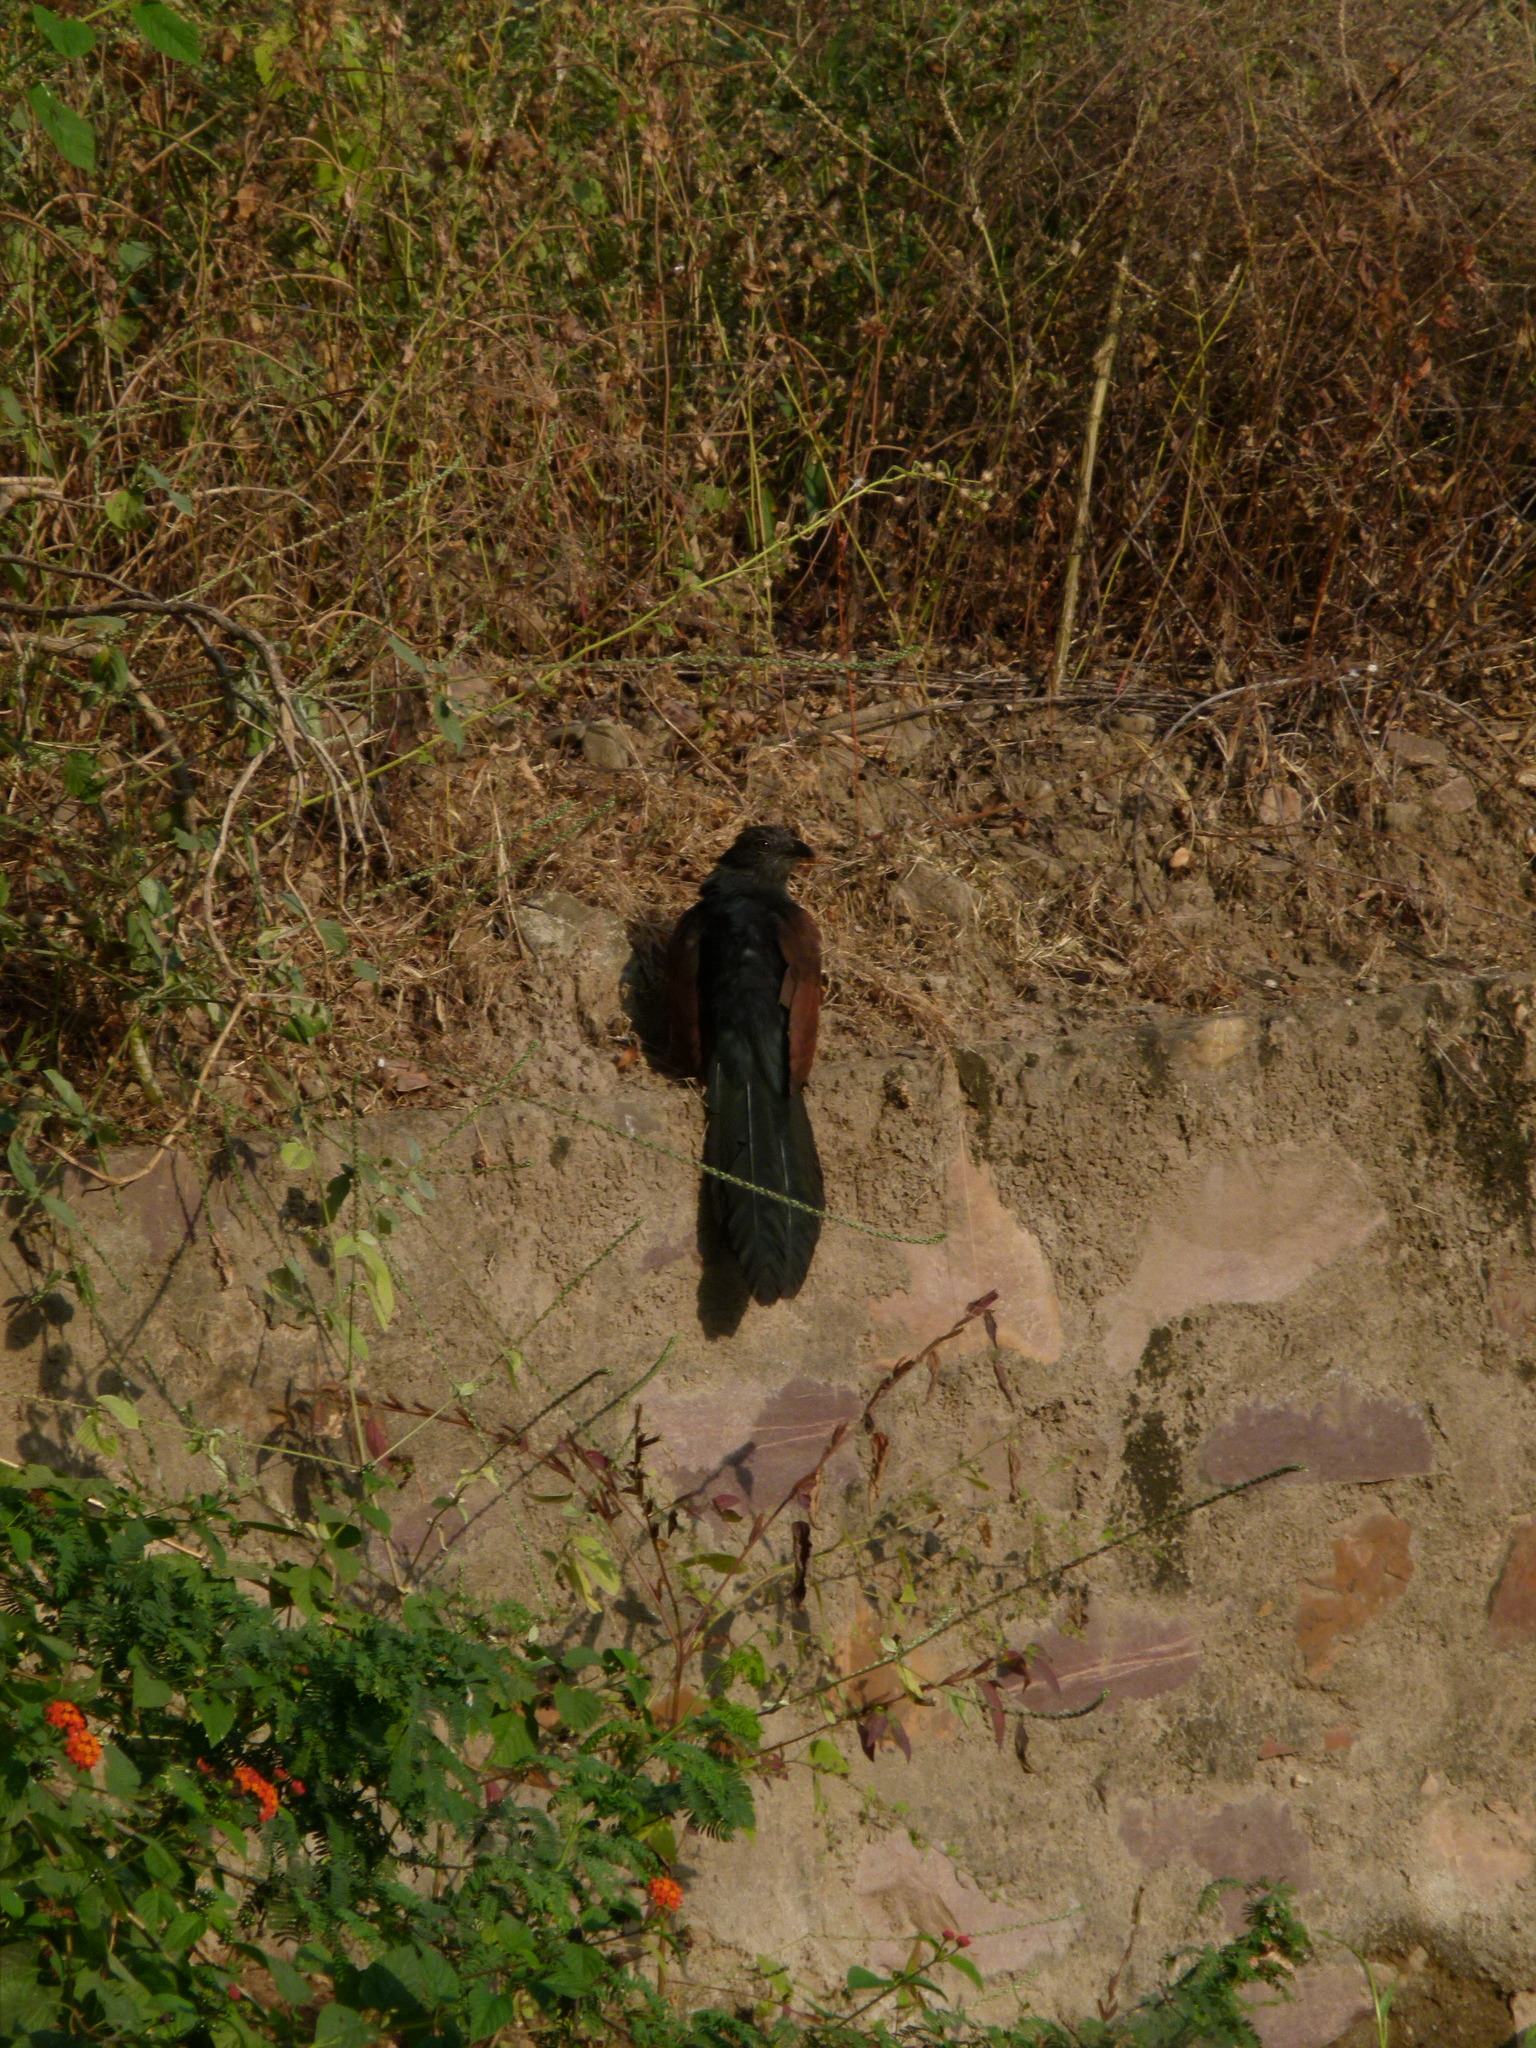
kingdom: Animalia
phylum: Chordata
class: Aves
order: Cuculiformes
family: Cuculidae
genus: Centropus
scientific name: Centropus sinensis
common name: Greater coucal
